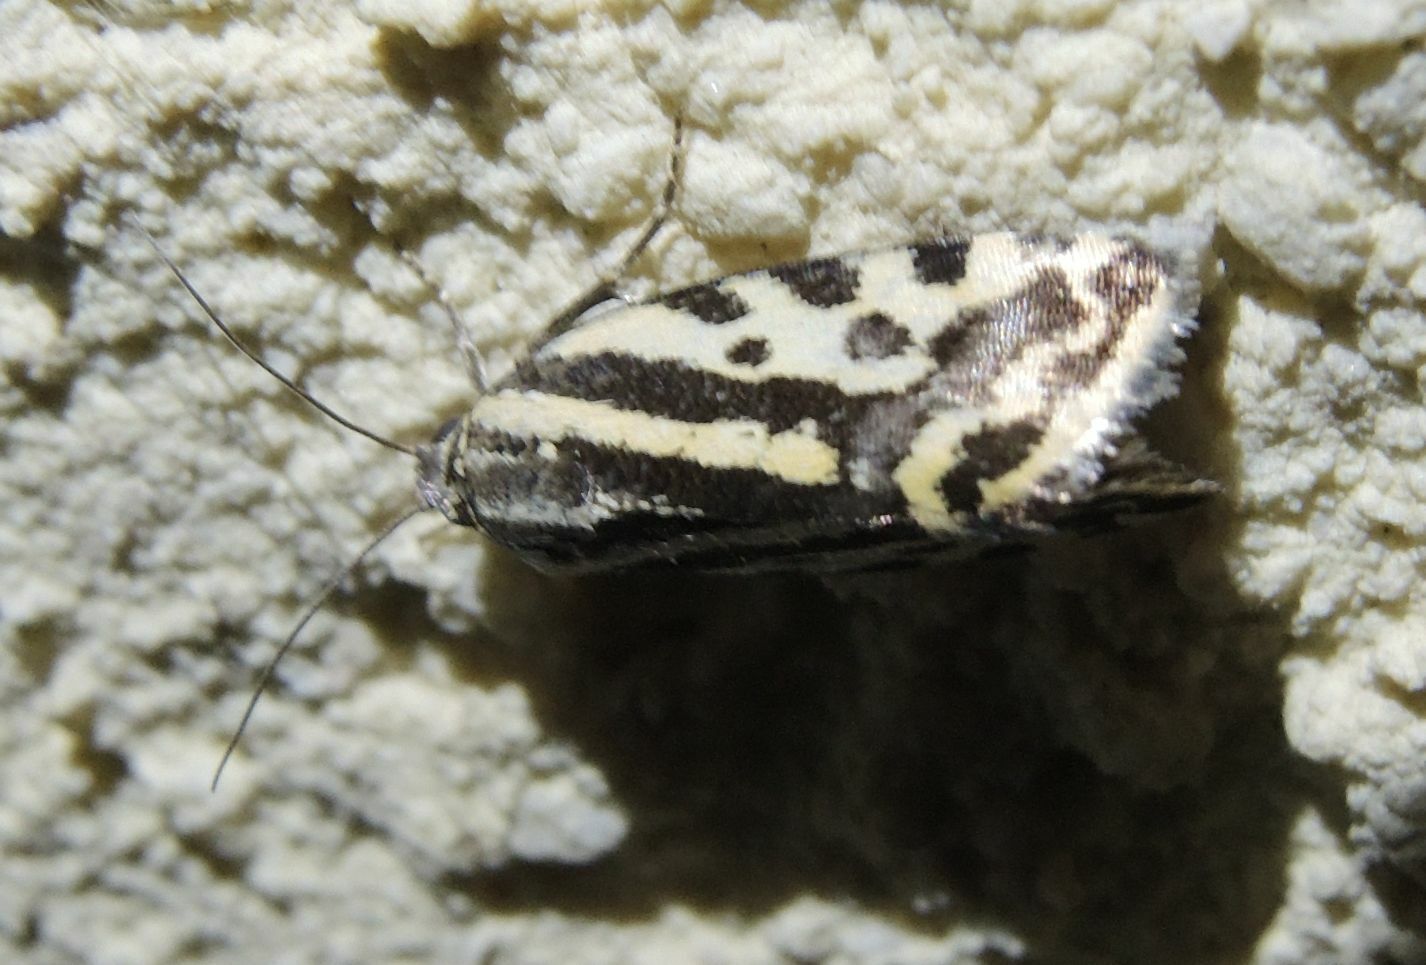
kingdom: Animalia
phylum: Arthropoda
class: Insecta
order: Lepidoptera
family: Noctuidae
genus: Acontia
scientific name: Acontia trabealis
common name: Spotted sulphur
